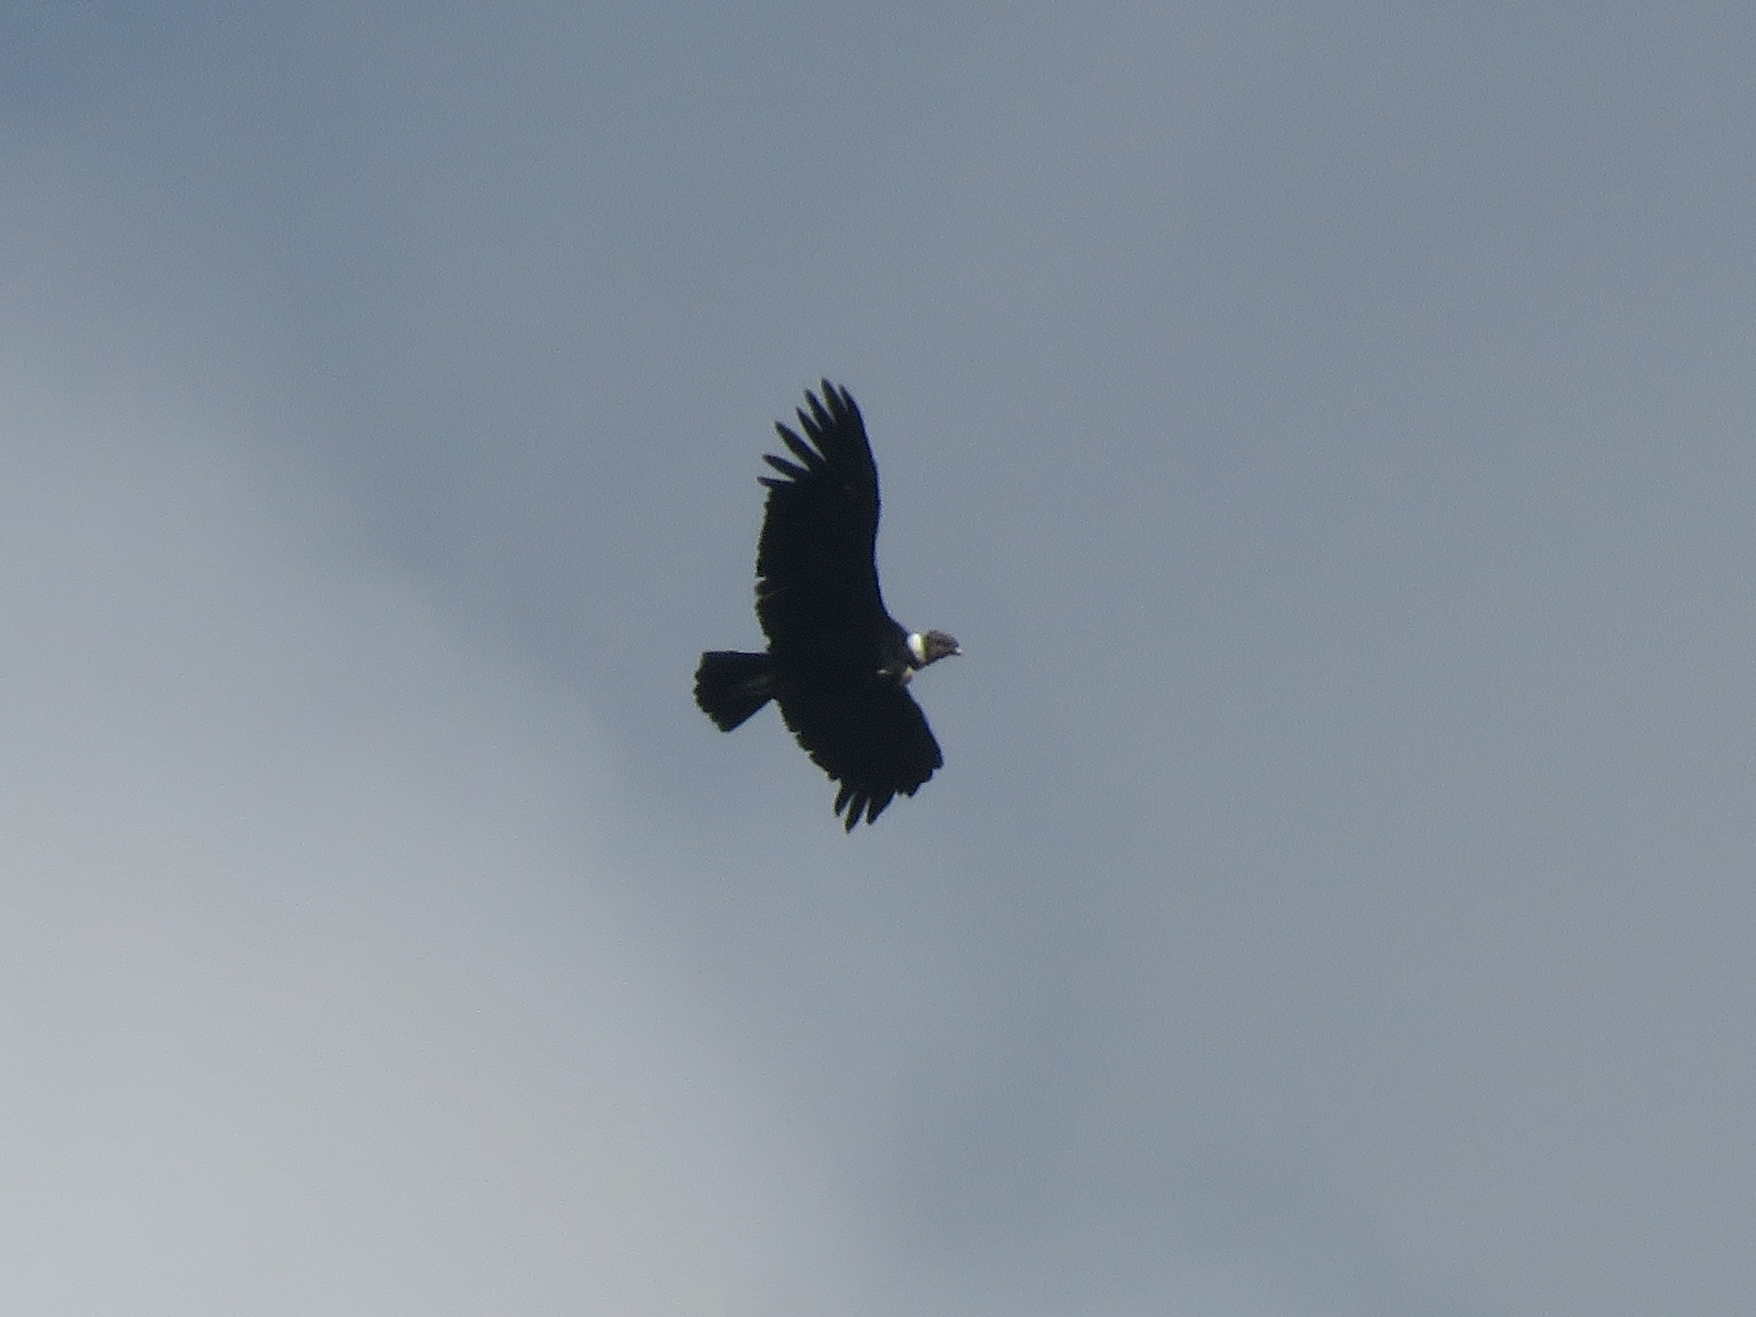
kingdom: Animalia
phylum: Chordata
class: Aves
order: Accipitriformes
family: Cathartidae
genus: Vultur
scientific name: Vultur gryphus
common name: Andean condor
